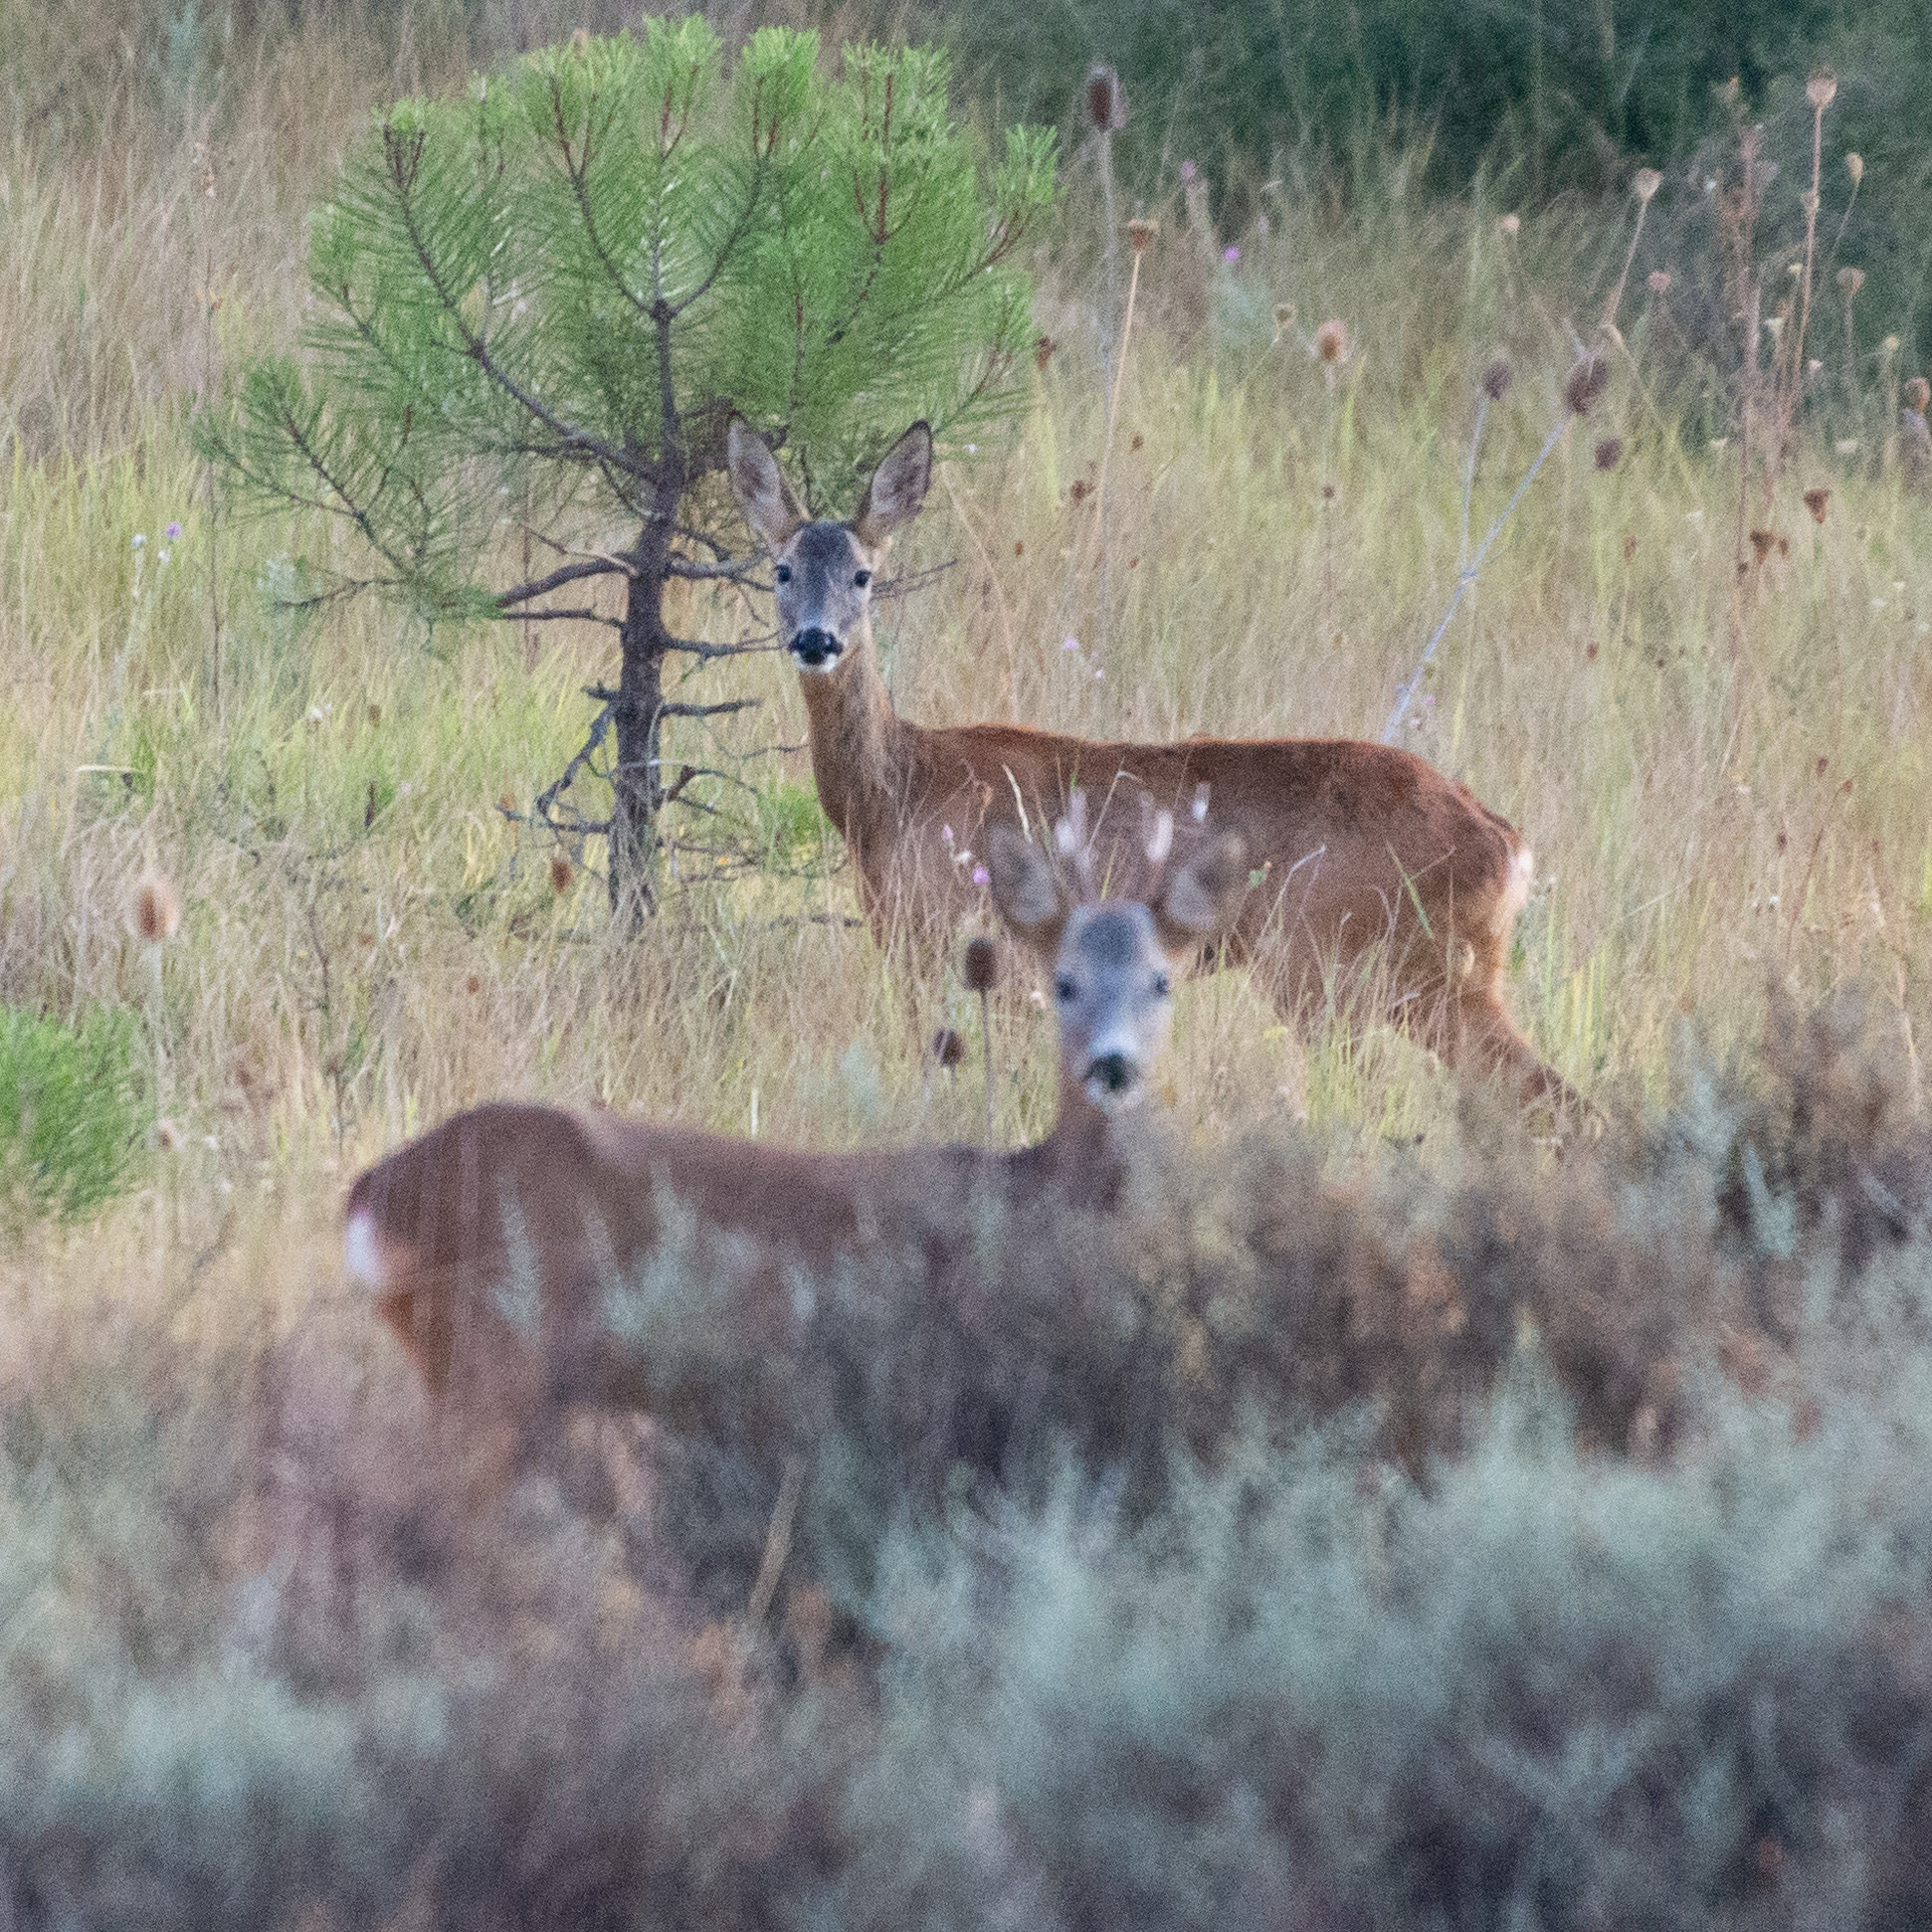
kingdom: Animalia
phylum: Chordata
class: Mammalia
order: Artiodactyla
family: Cervidae
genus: Capreolus
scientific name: Capreolus capreolus
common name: Western roe deer
